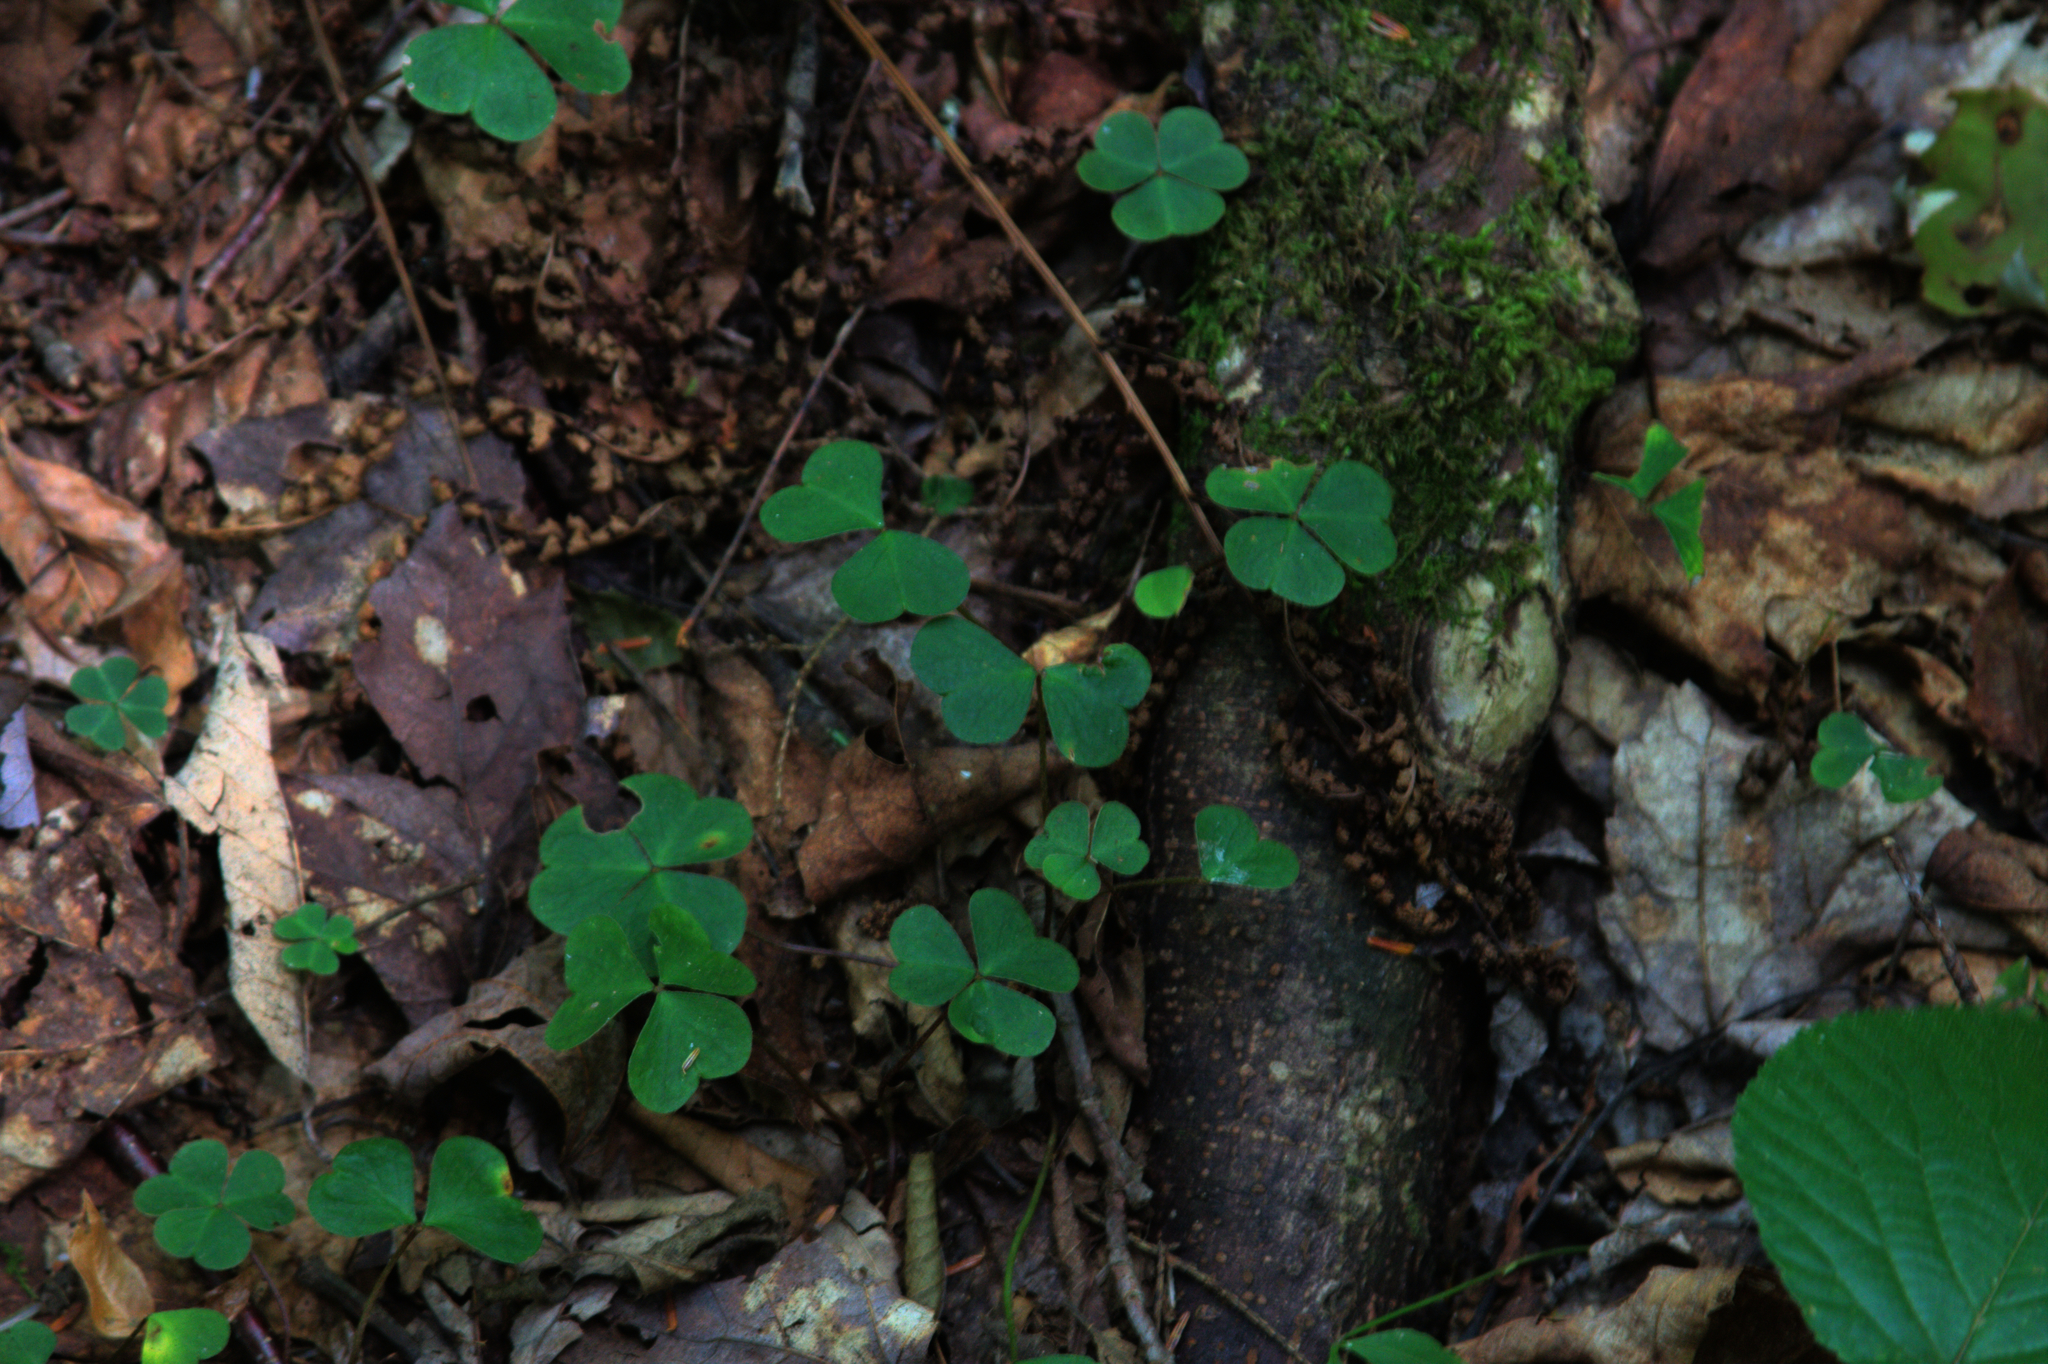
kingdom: Plantae
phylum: Tracheophyta
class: Magnoliopsida
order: Oxalidales
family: Oxalidaceae
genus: Oxalis
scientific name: Oxalis montana
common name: American wood-sorrel
